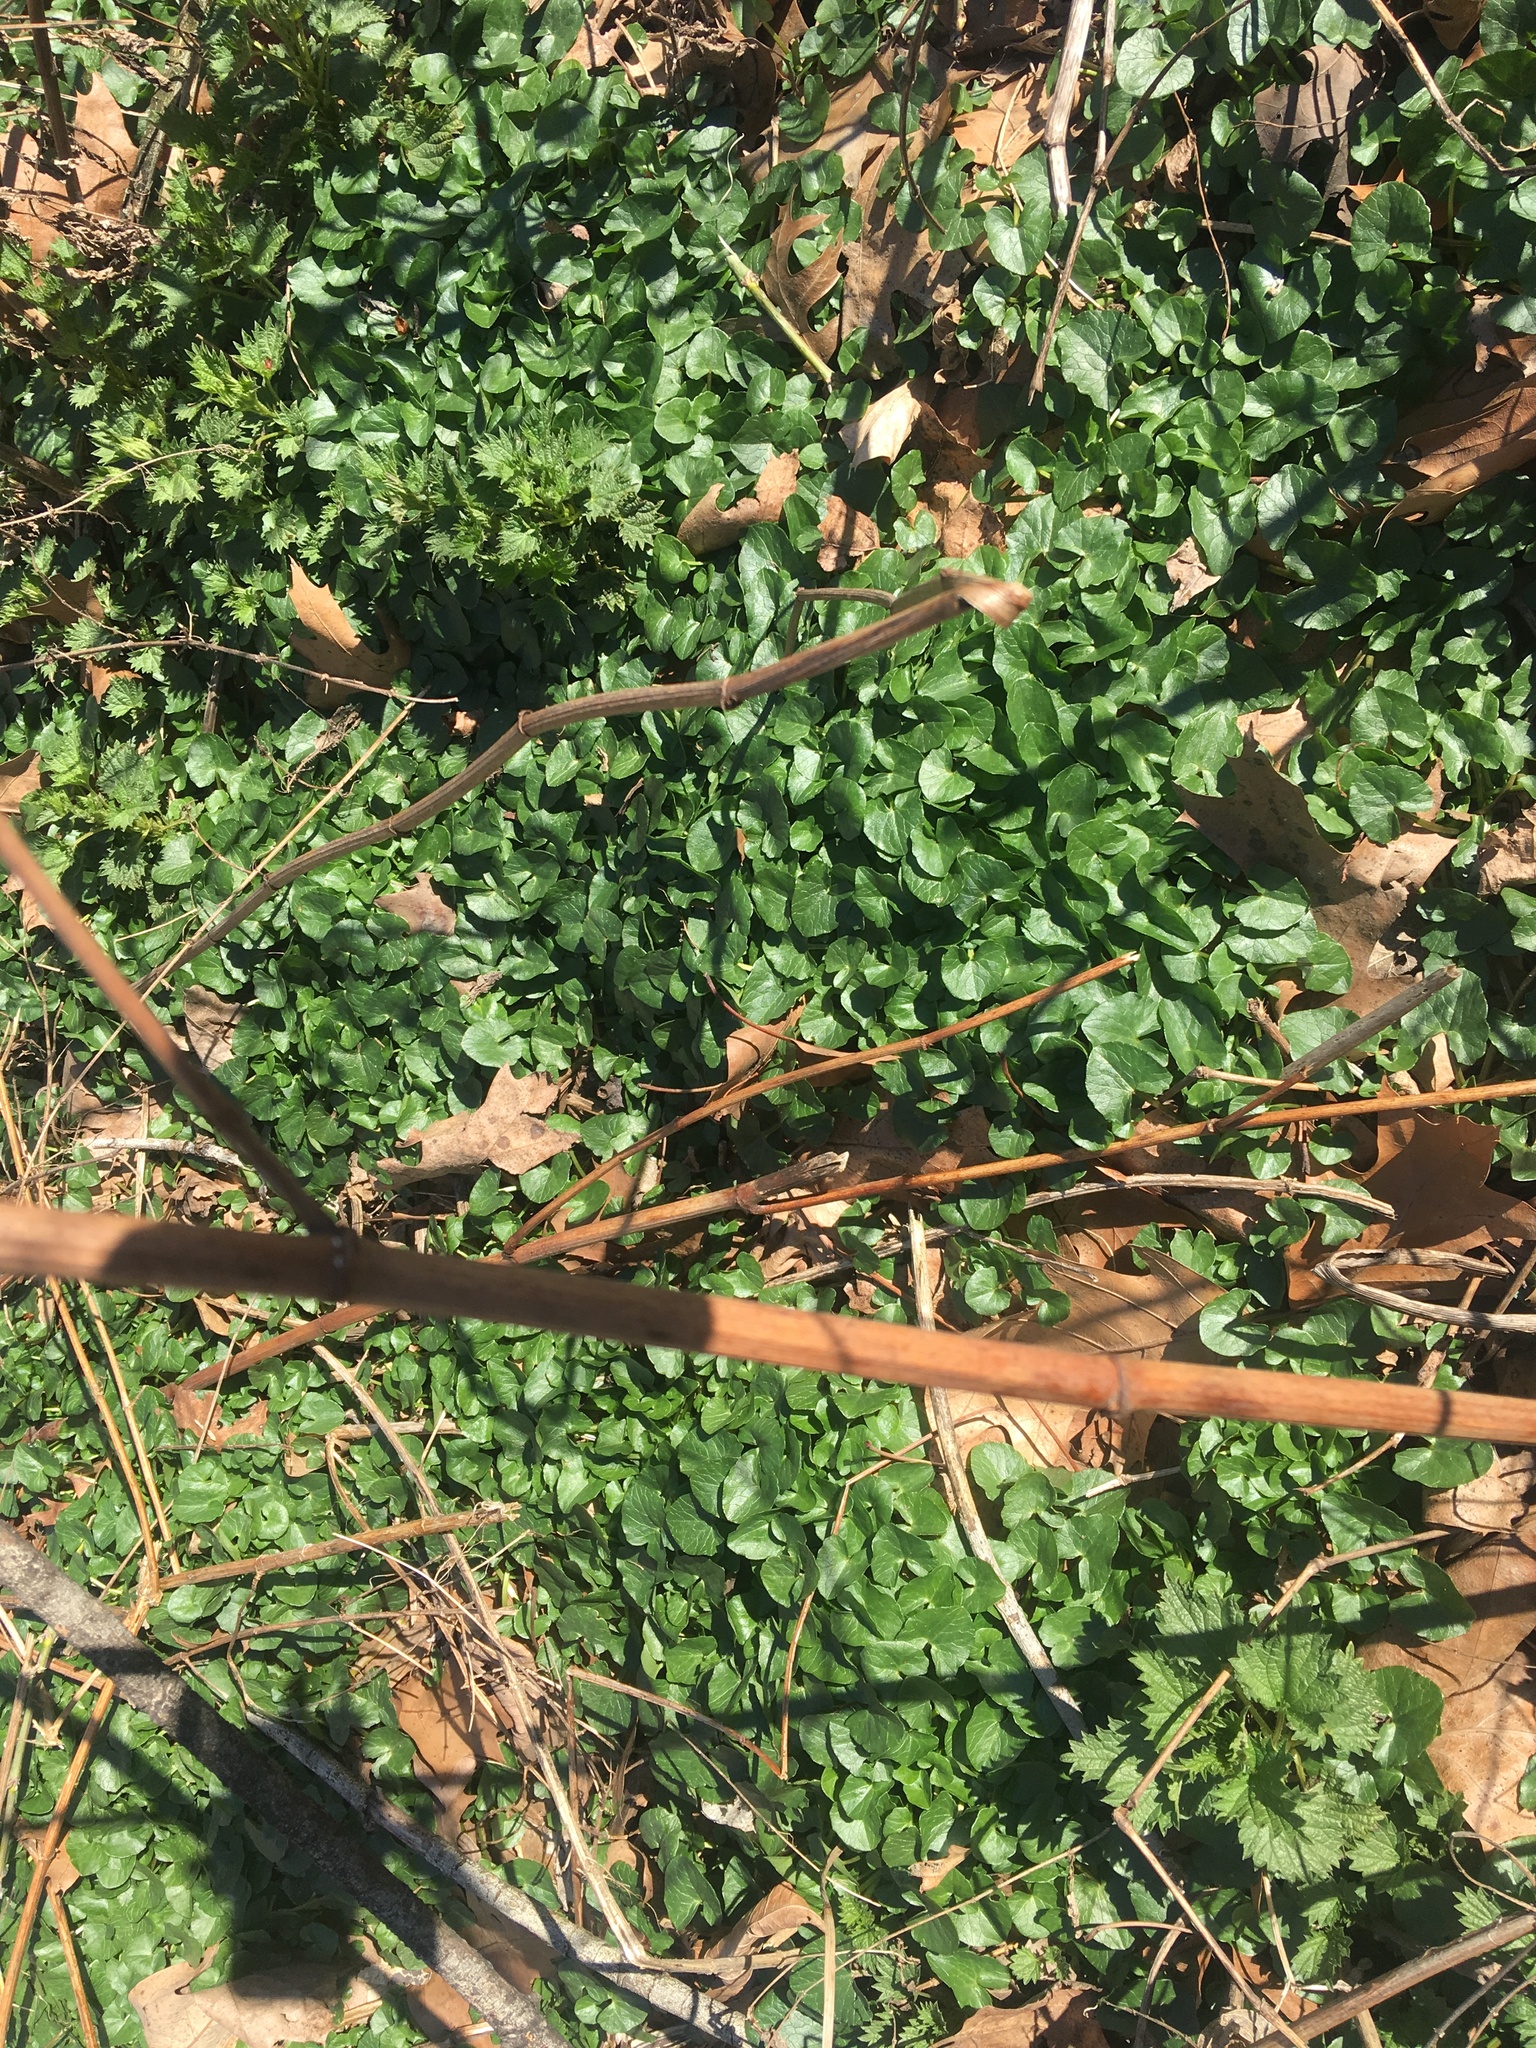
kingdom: Plantae
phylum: Tracheophyta
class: Magnoliopsida
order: Ranunculales
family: Ranunculaceae
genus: Ficaria
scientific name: Ficaria verna
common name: Lesser celandine
